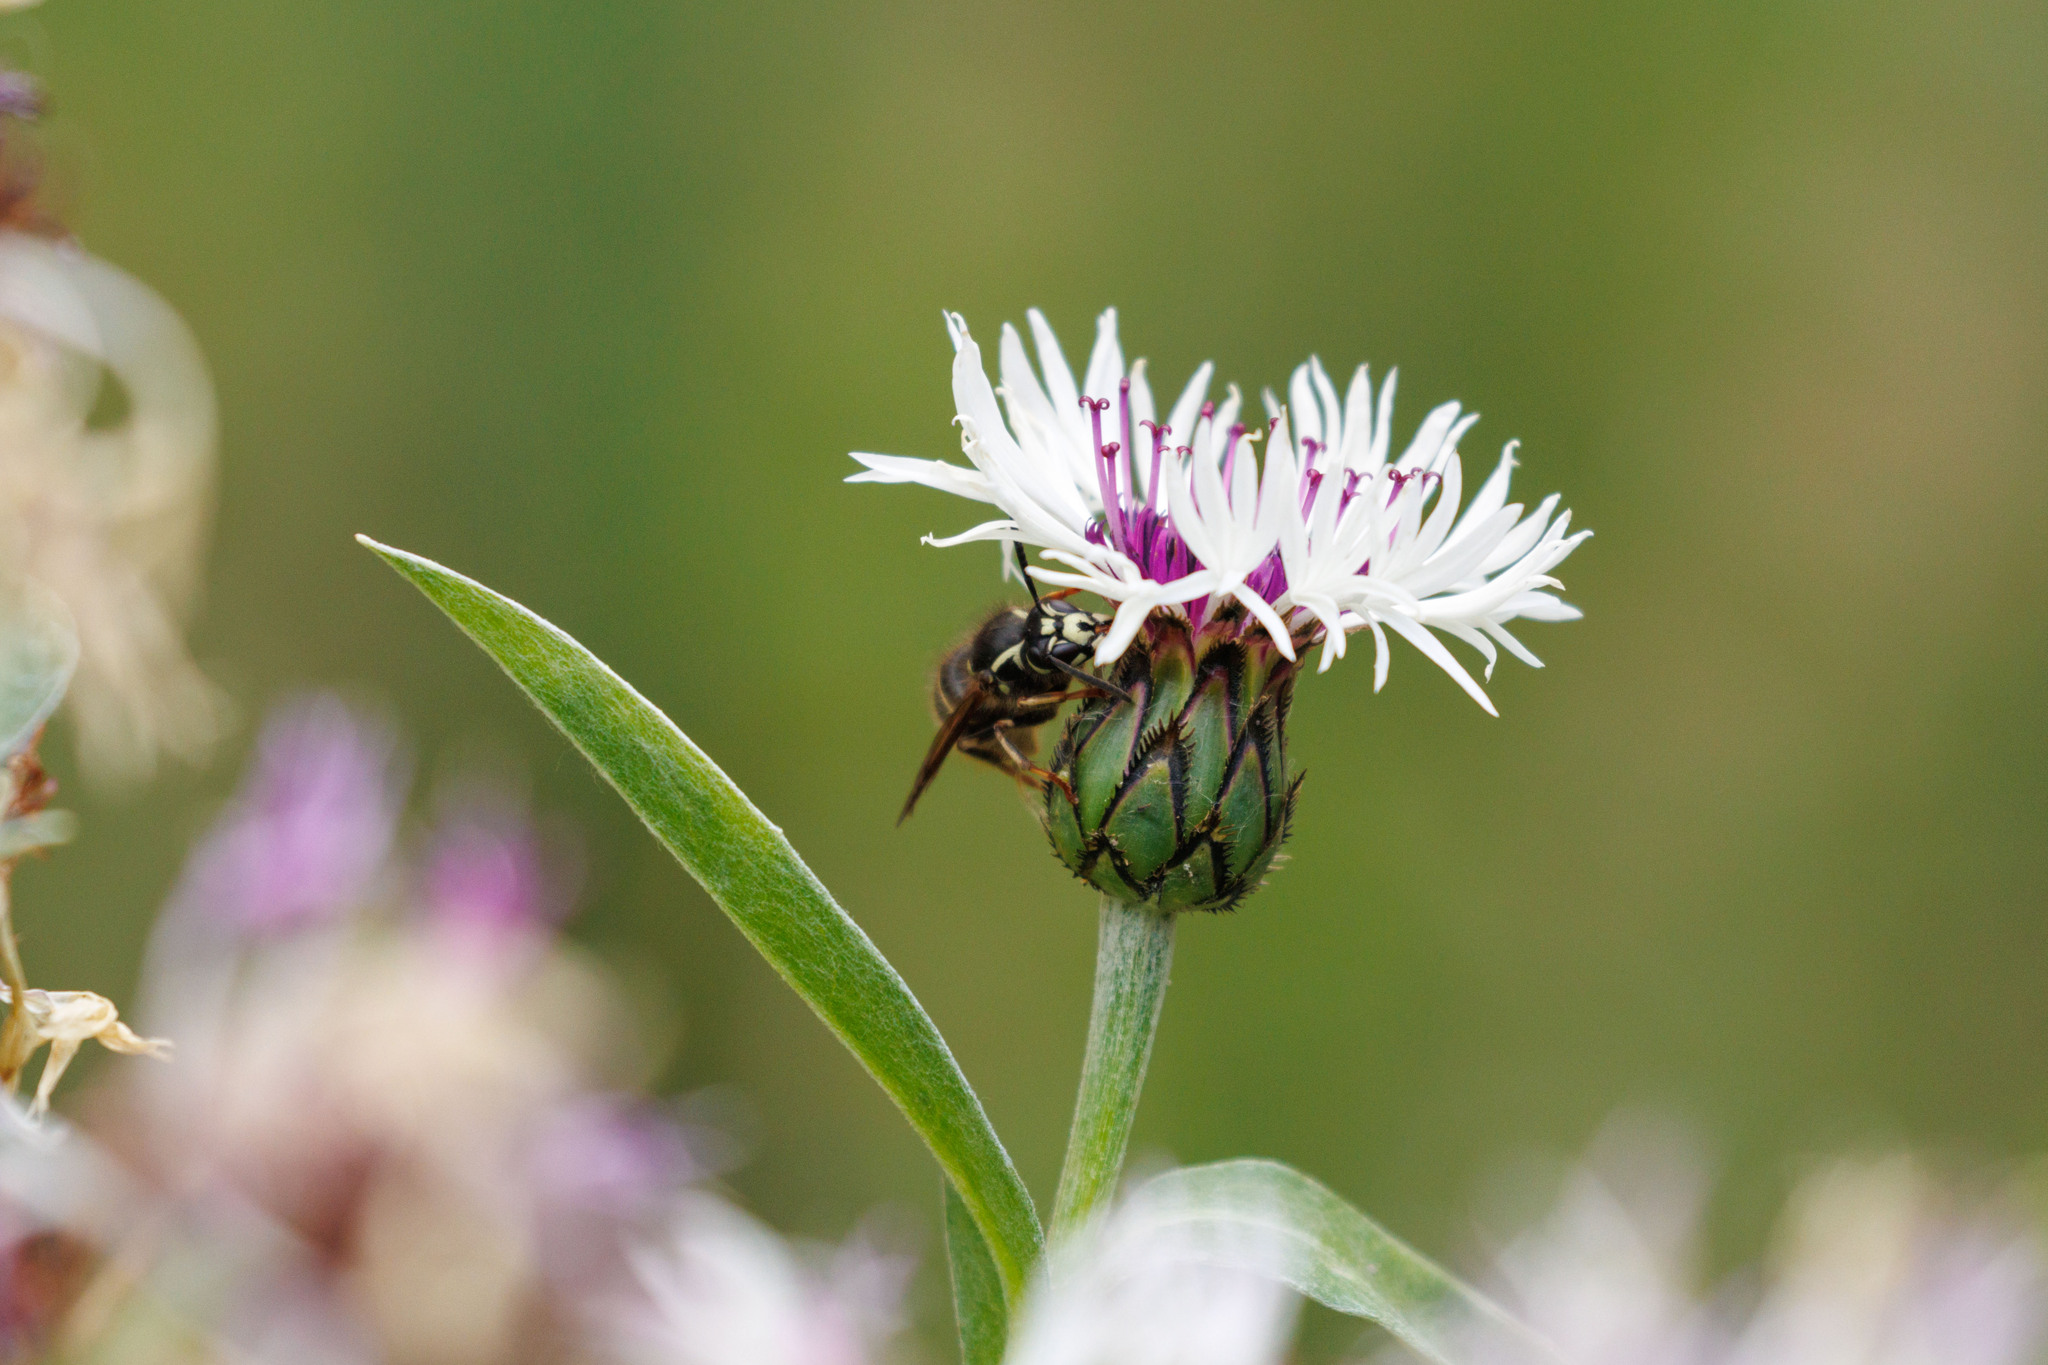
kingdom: Animalia
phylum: Arthropoda
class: Insecta
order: Hymenoptera
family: Vespidae
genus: Dolichovespula
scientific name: Dolichovespula adulterina
